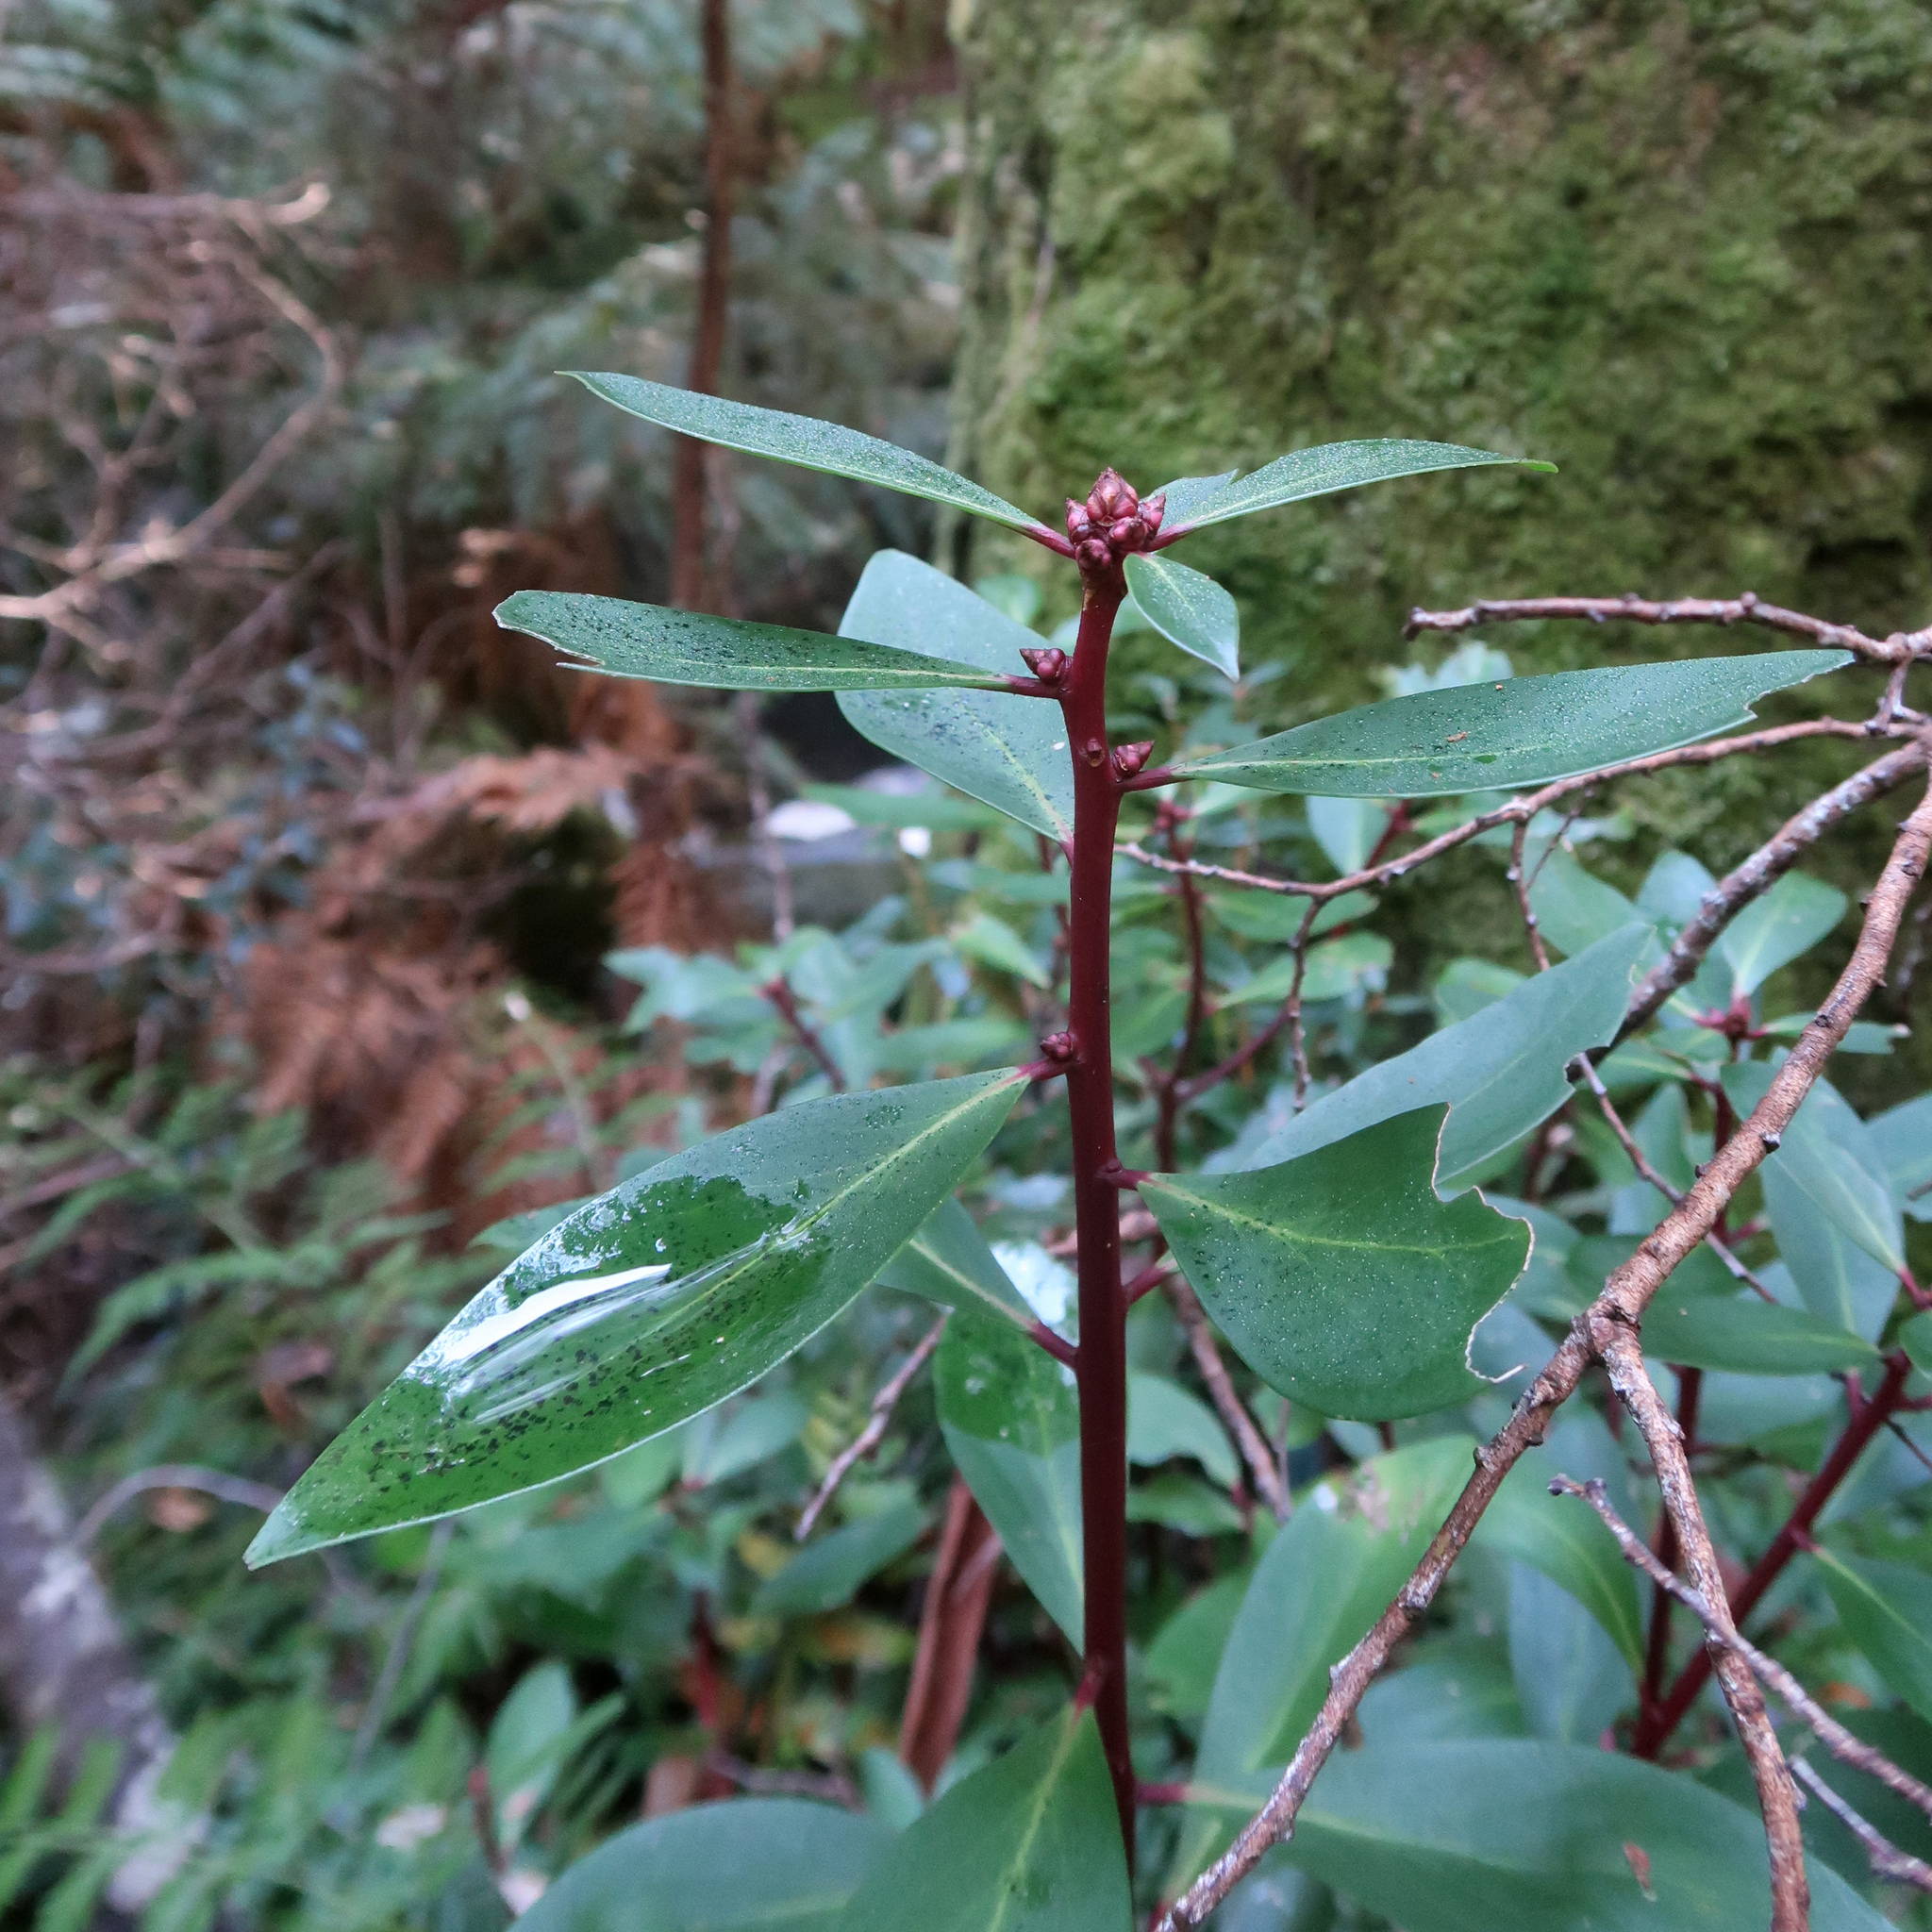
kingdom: Plantae
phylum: Tracheophyta
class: Magnoliopsida
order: Canellales
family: Winteraceae
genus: Drimys
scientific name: Drimys aromatica
